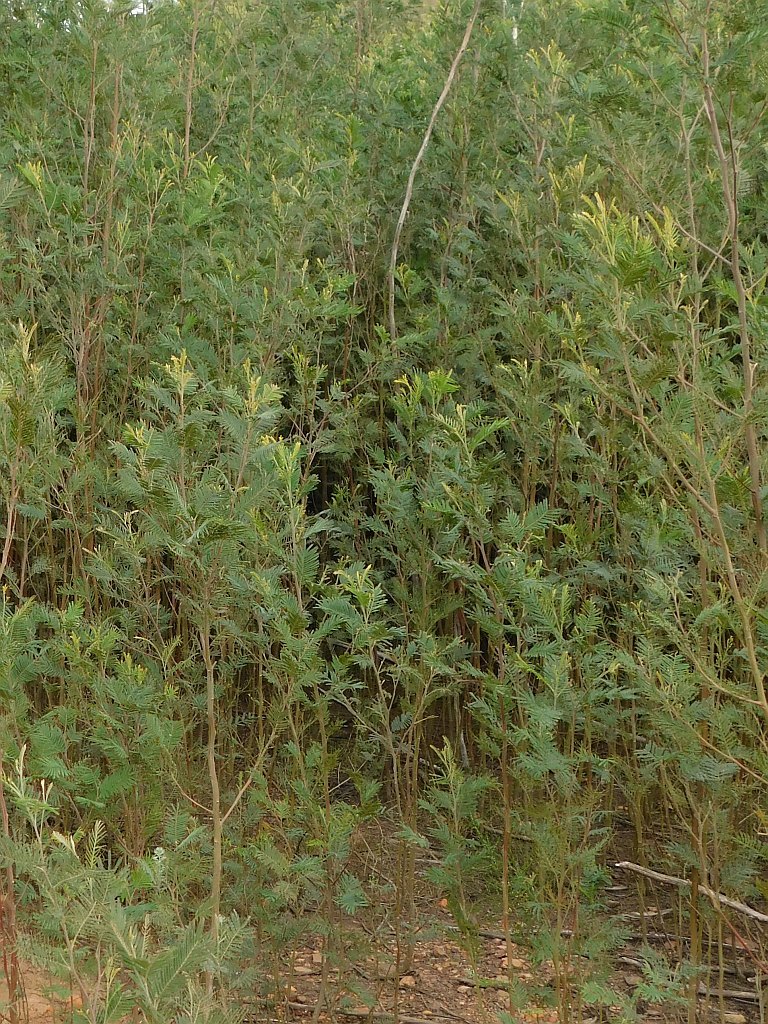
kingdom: Plantae
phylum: Tracheophyta
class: Magnoliopsida
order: Fabales
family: Fabaceae
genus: Acacia
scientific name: Acacia mearnsii
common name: Black wattle
